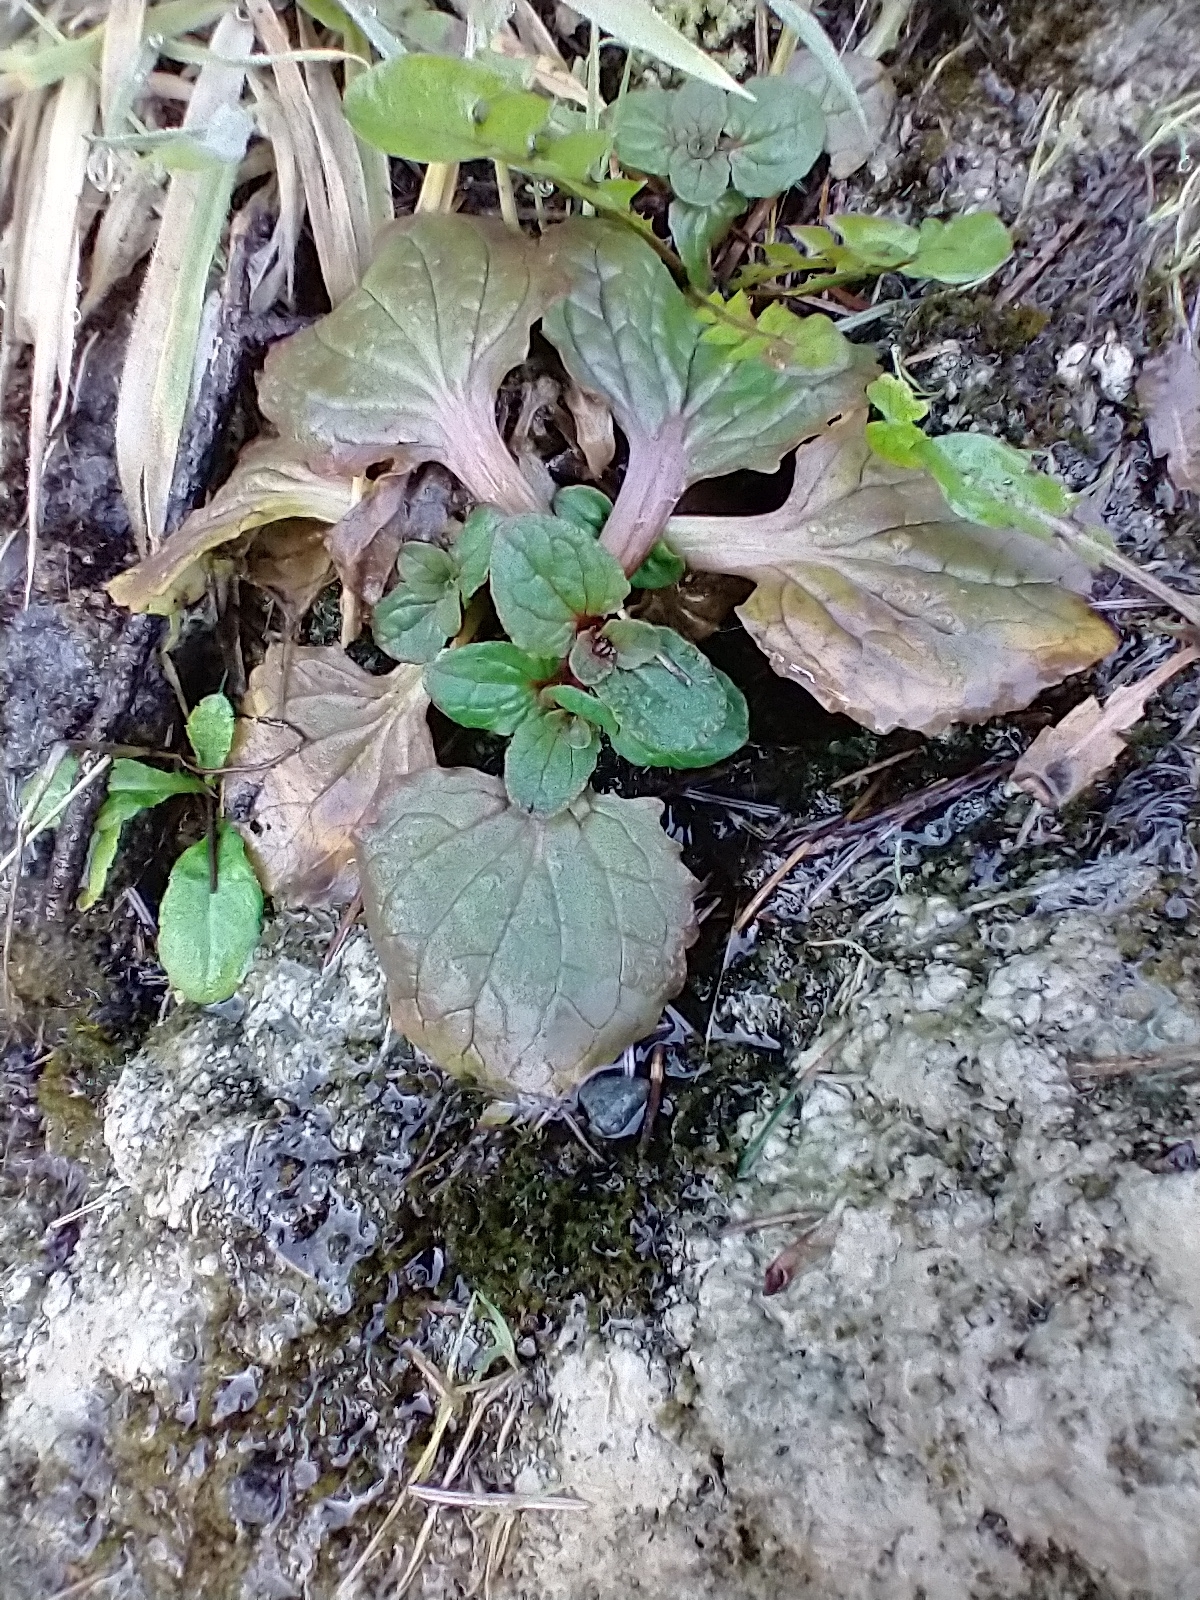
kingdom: Plantae
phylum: Tracheophyta
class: Magnoliopsida
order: Lamiales
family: Phrymaceae
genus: Erythranthe
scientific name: Erythranthe grandis
